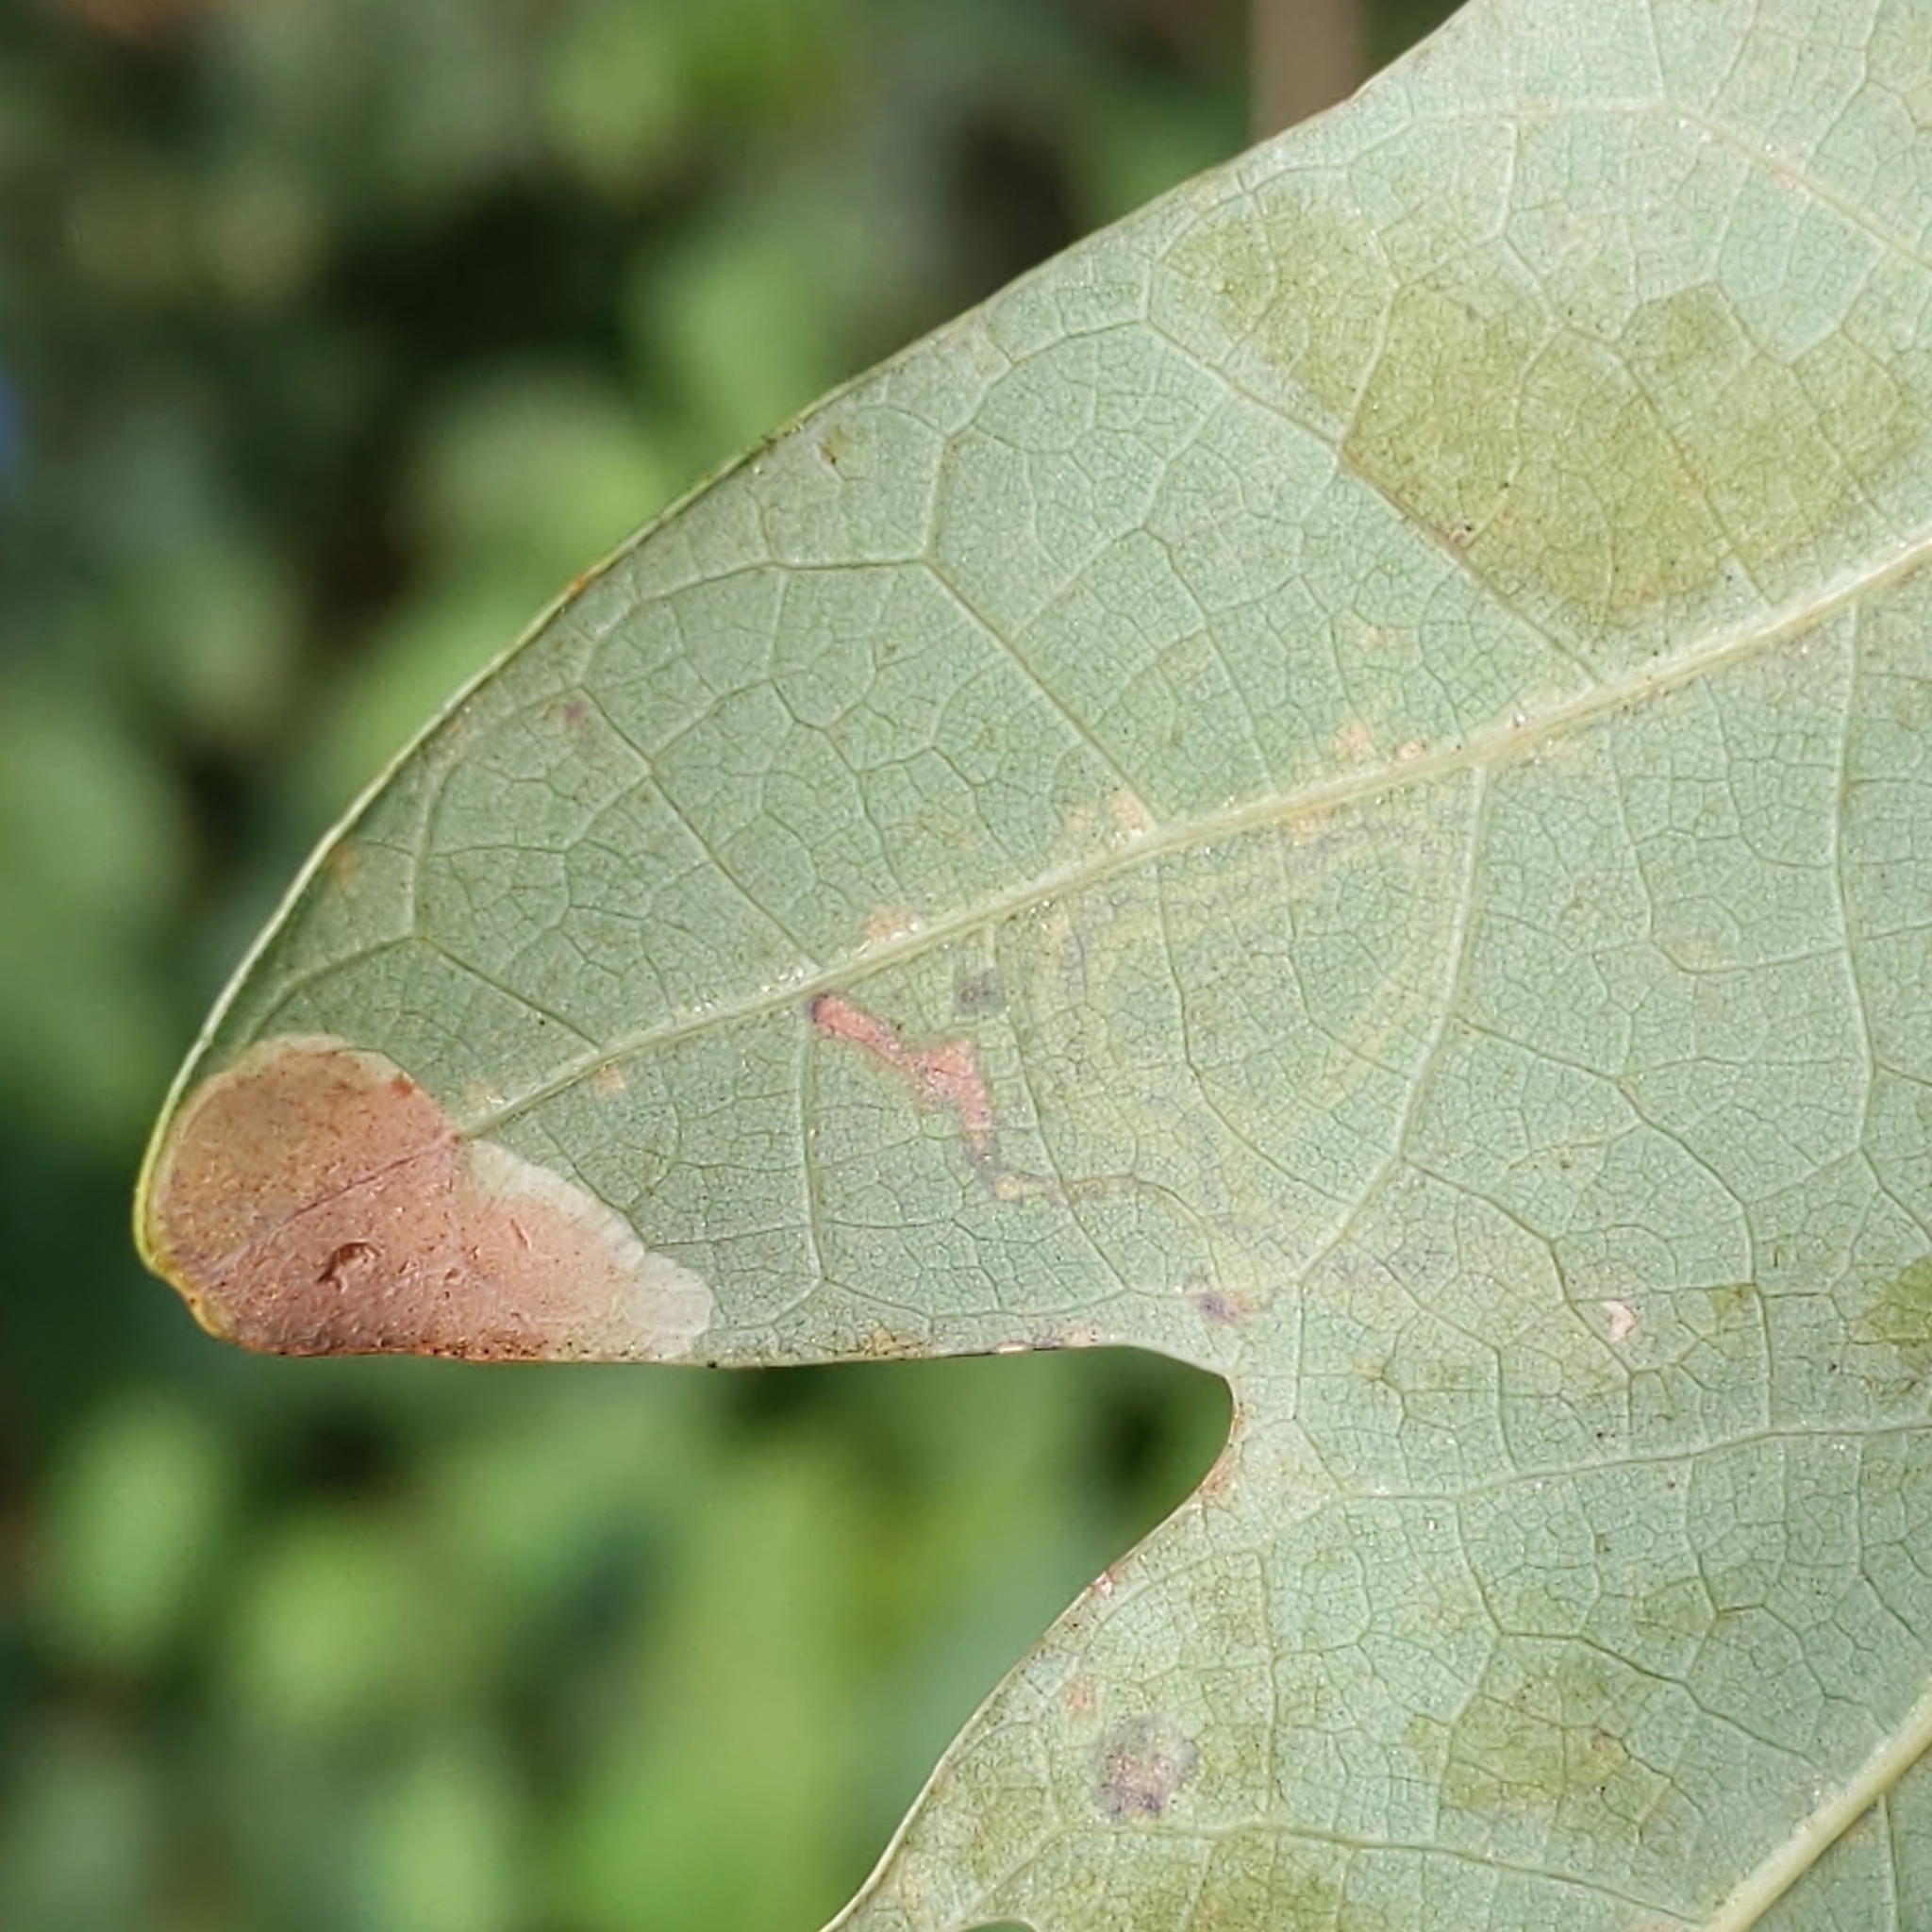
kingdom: Animalia
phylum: Arthropoda
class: Insecta
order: Lepidoptera
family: Nepticulidae
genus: Stigmella
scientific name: Stigmella
